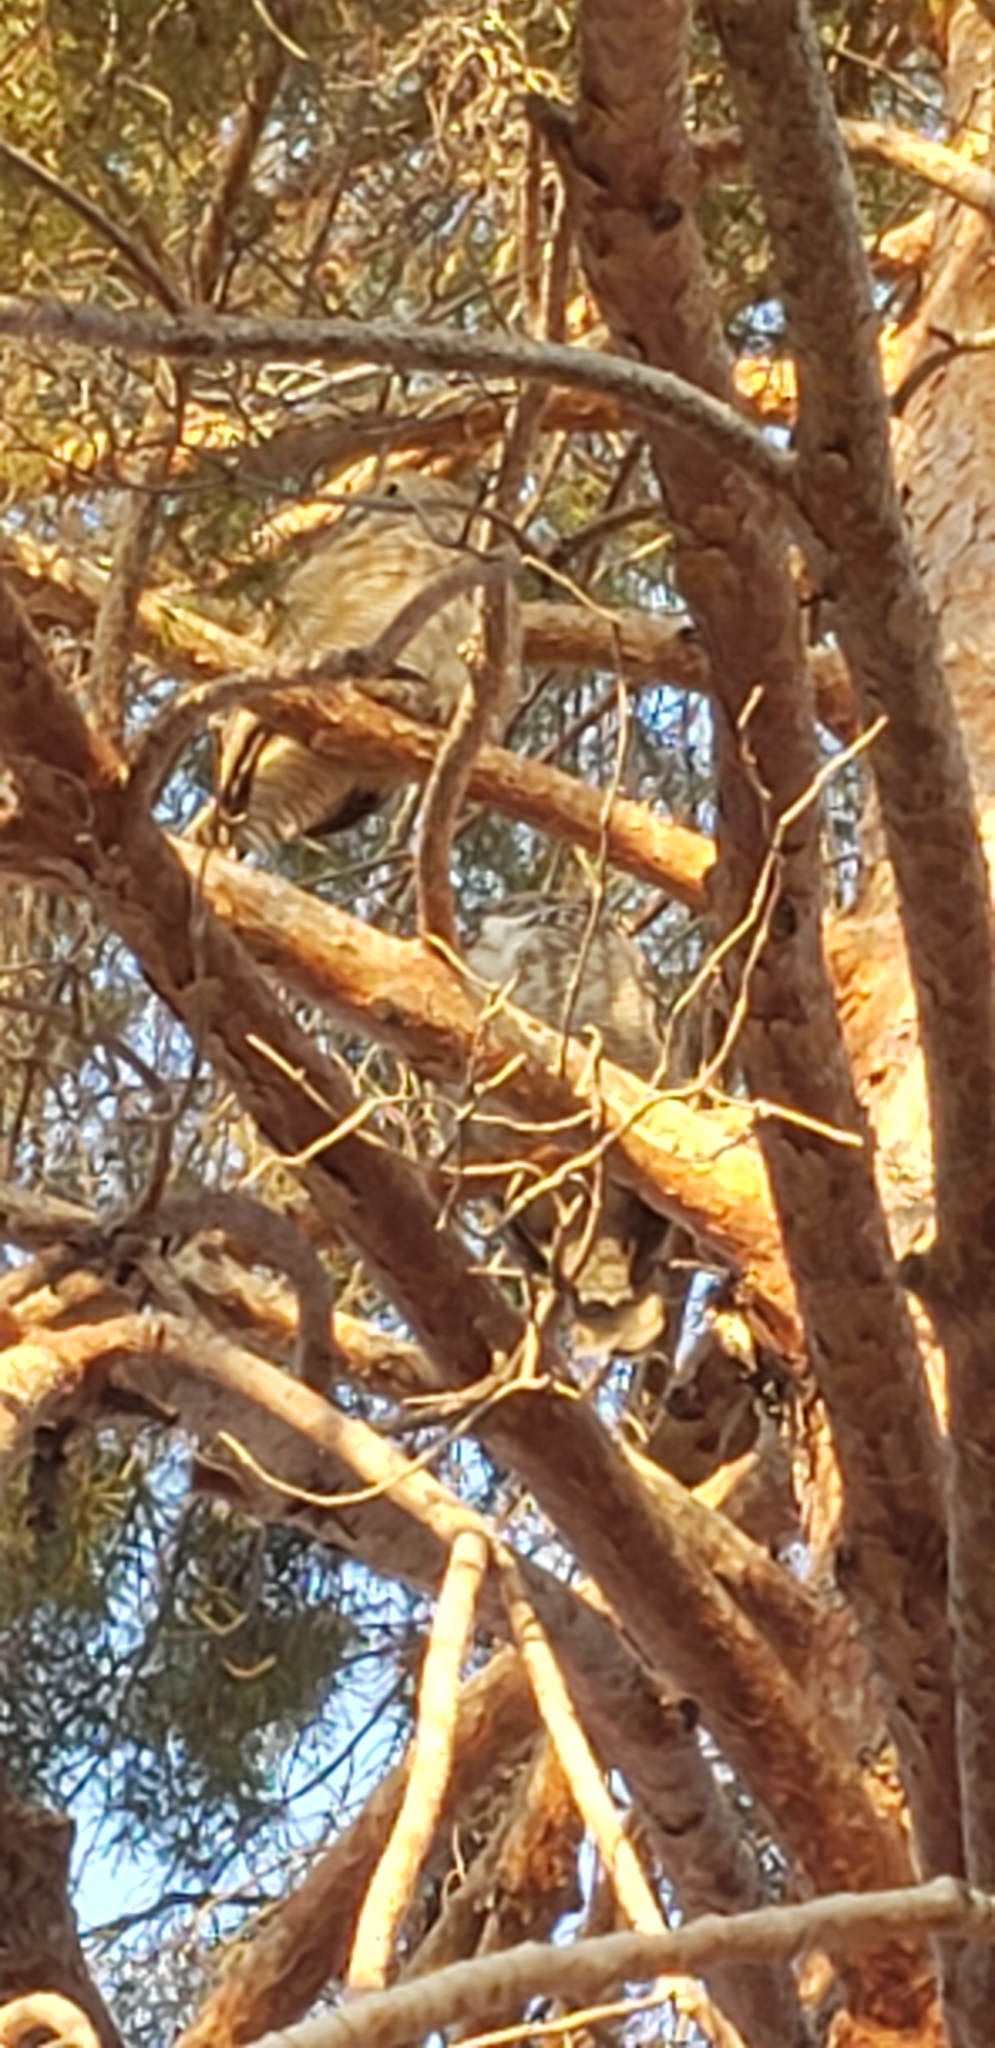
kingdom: Animalia
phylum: Chordata
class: Aves
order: Strigiformes
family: Strigidae
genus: Bubo
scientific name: Bubo virginianus
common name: Great horned owl
